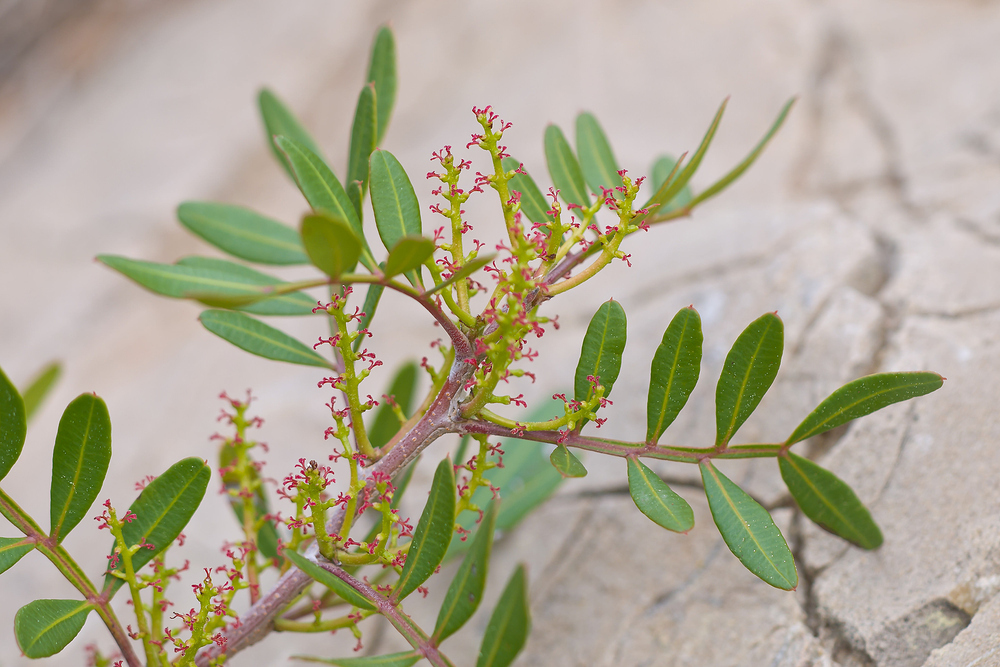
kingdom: Plantae
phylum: Tracheophyta
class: Magnoliopsida
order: Sapindales
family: Anacardiaceae
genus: Pistacia
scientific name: Pistacia lentiscus
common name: Lentisk
